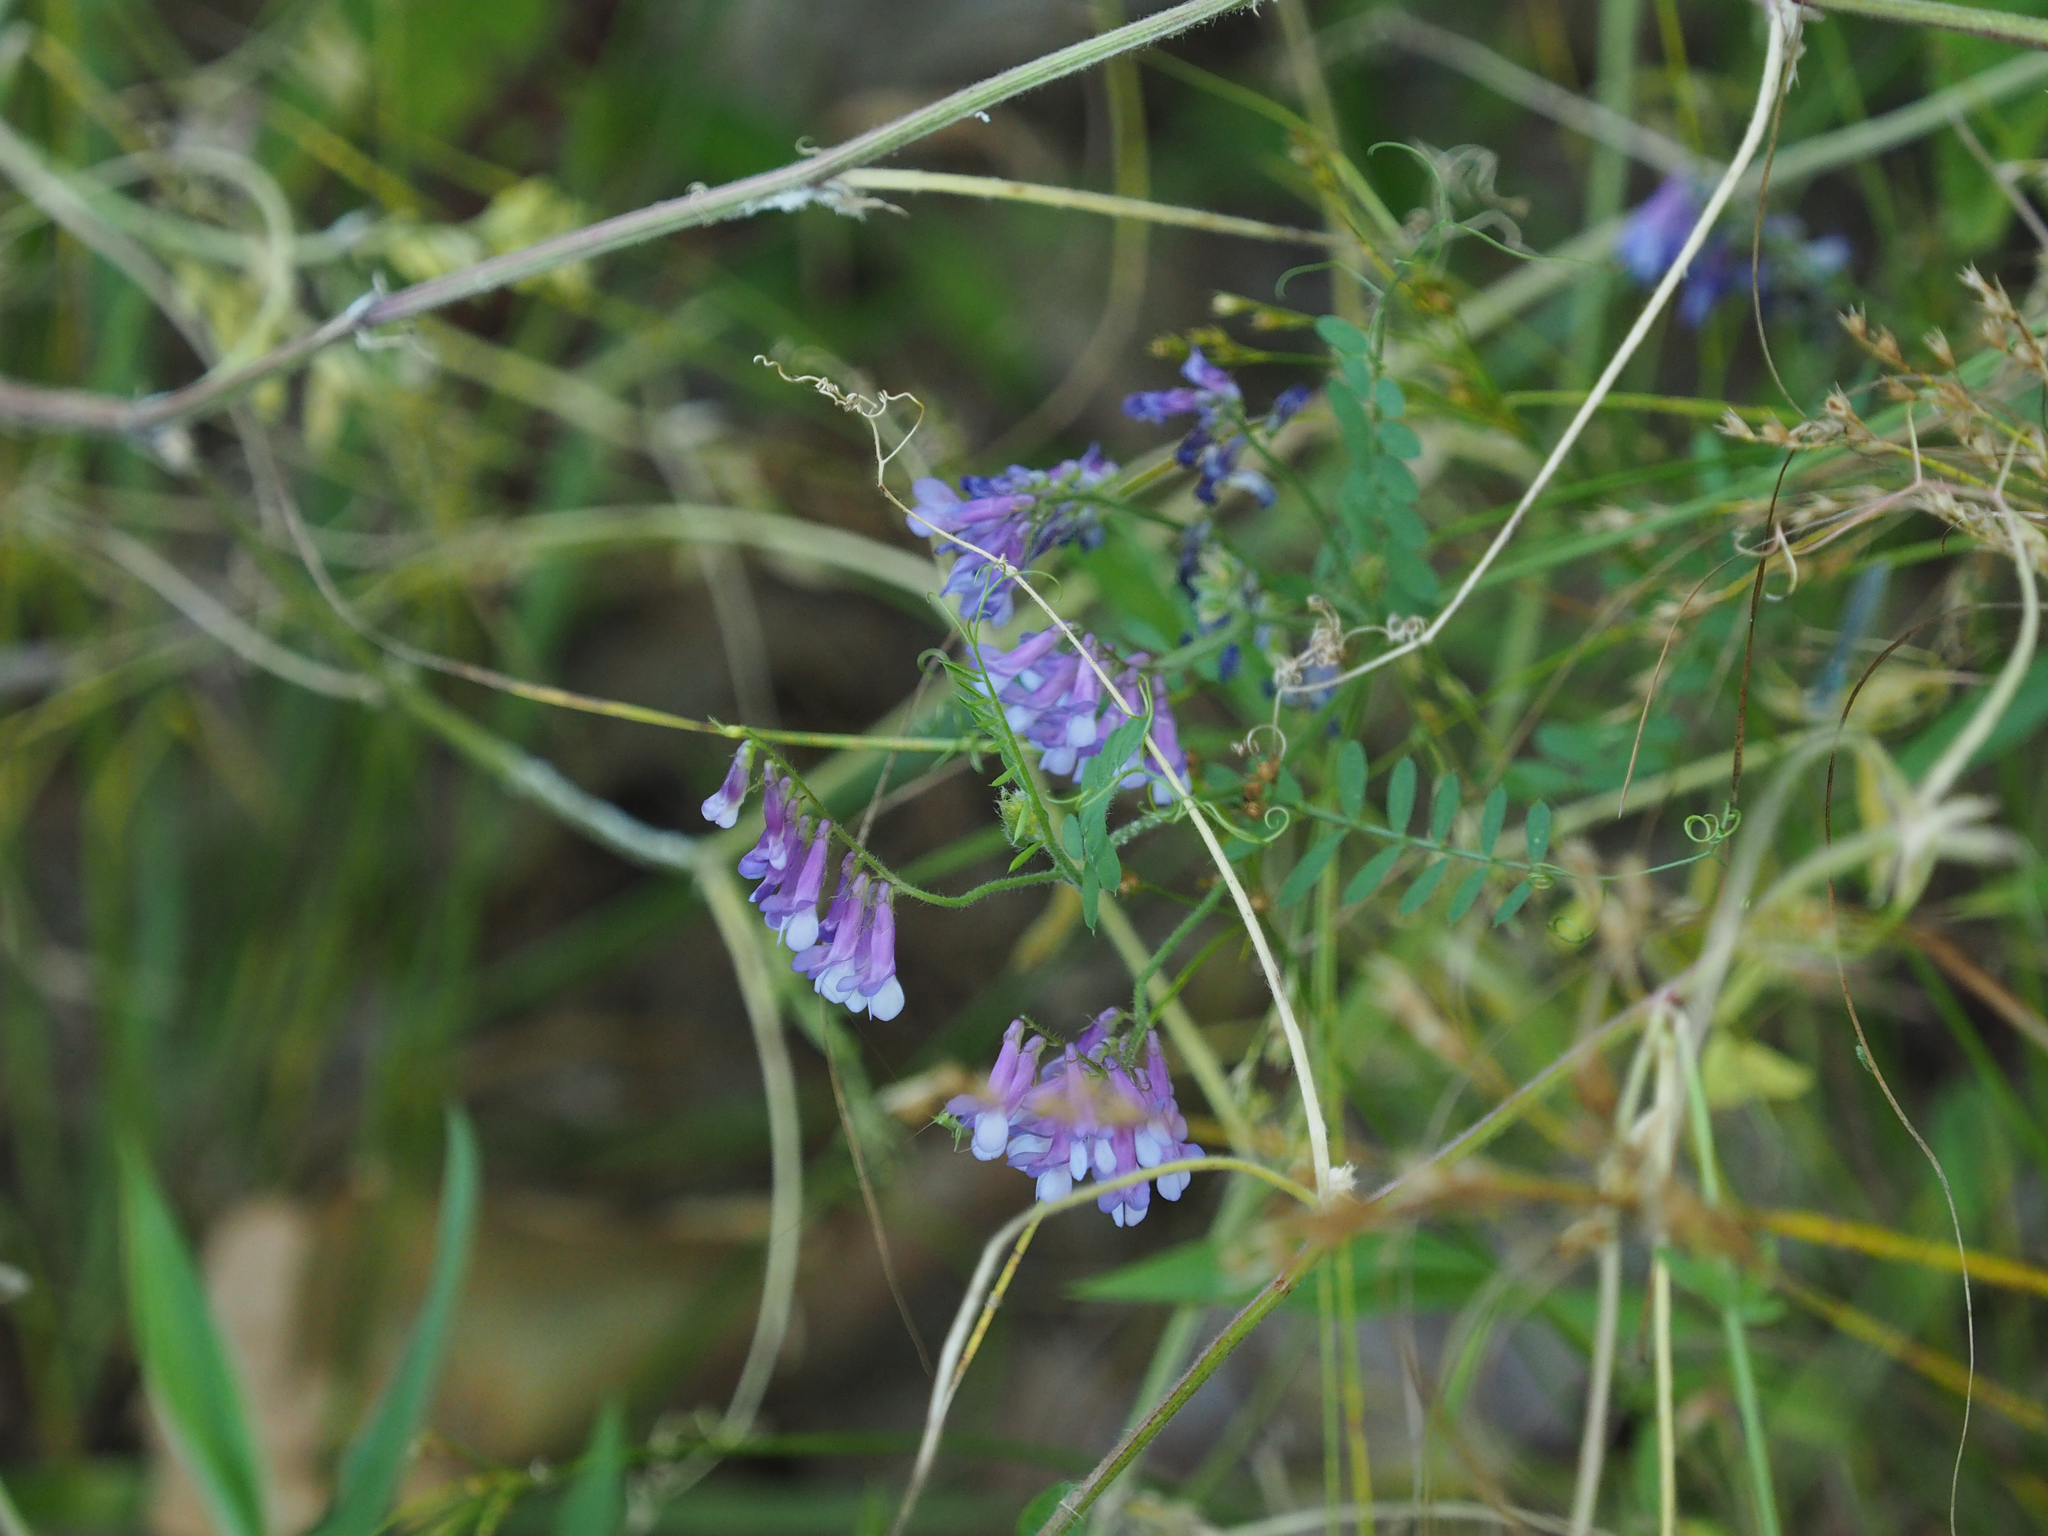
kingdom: Plantae
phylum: Tracheophyta
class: Magnoliopsida
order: Fabales
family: Fabaceae
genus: Vicia
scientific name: Vicia villosa
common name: Fodder vetch
